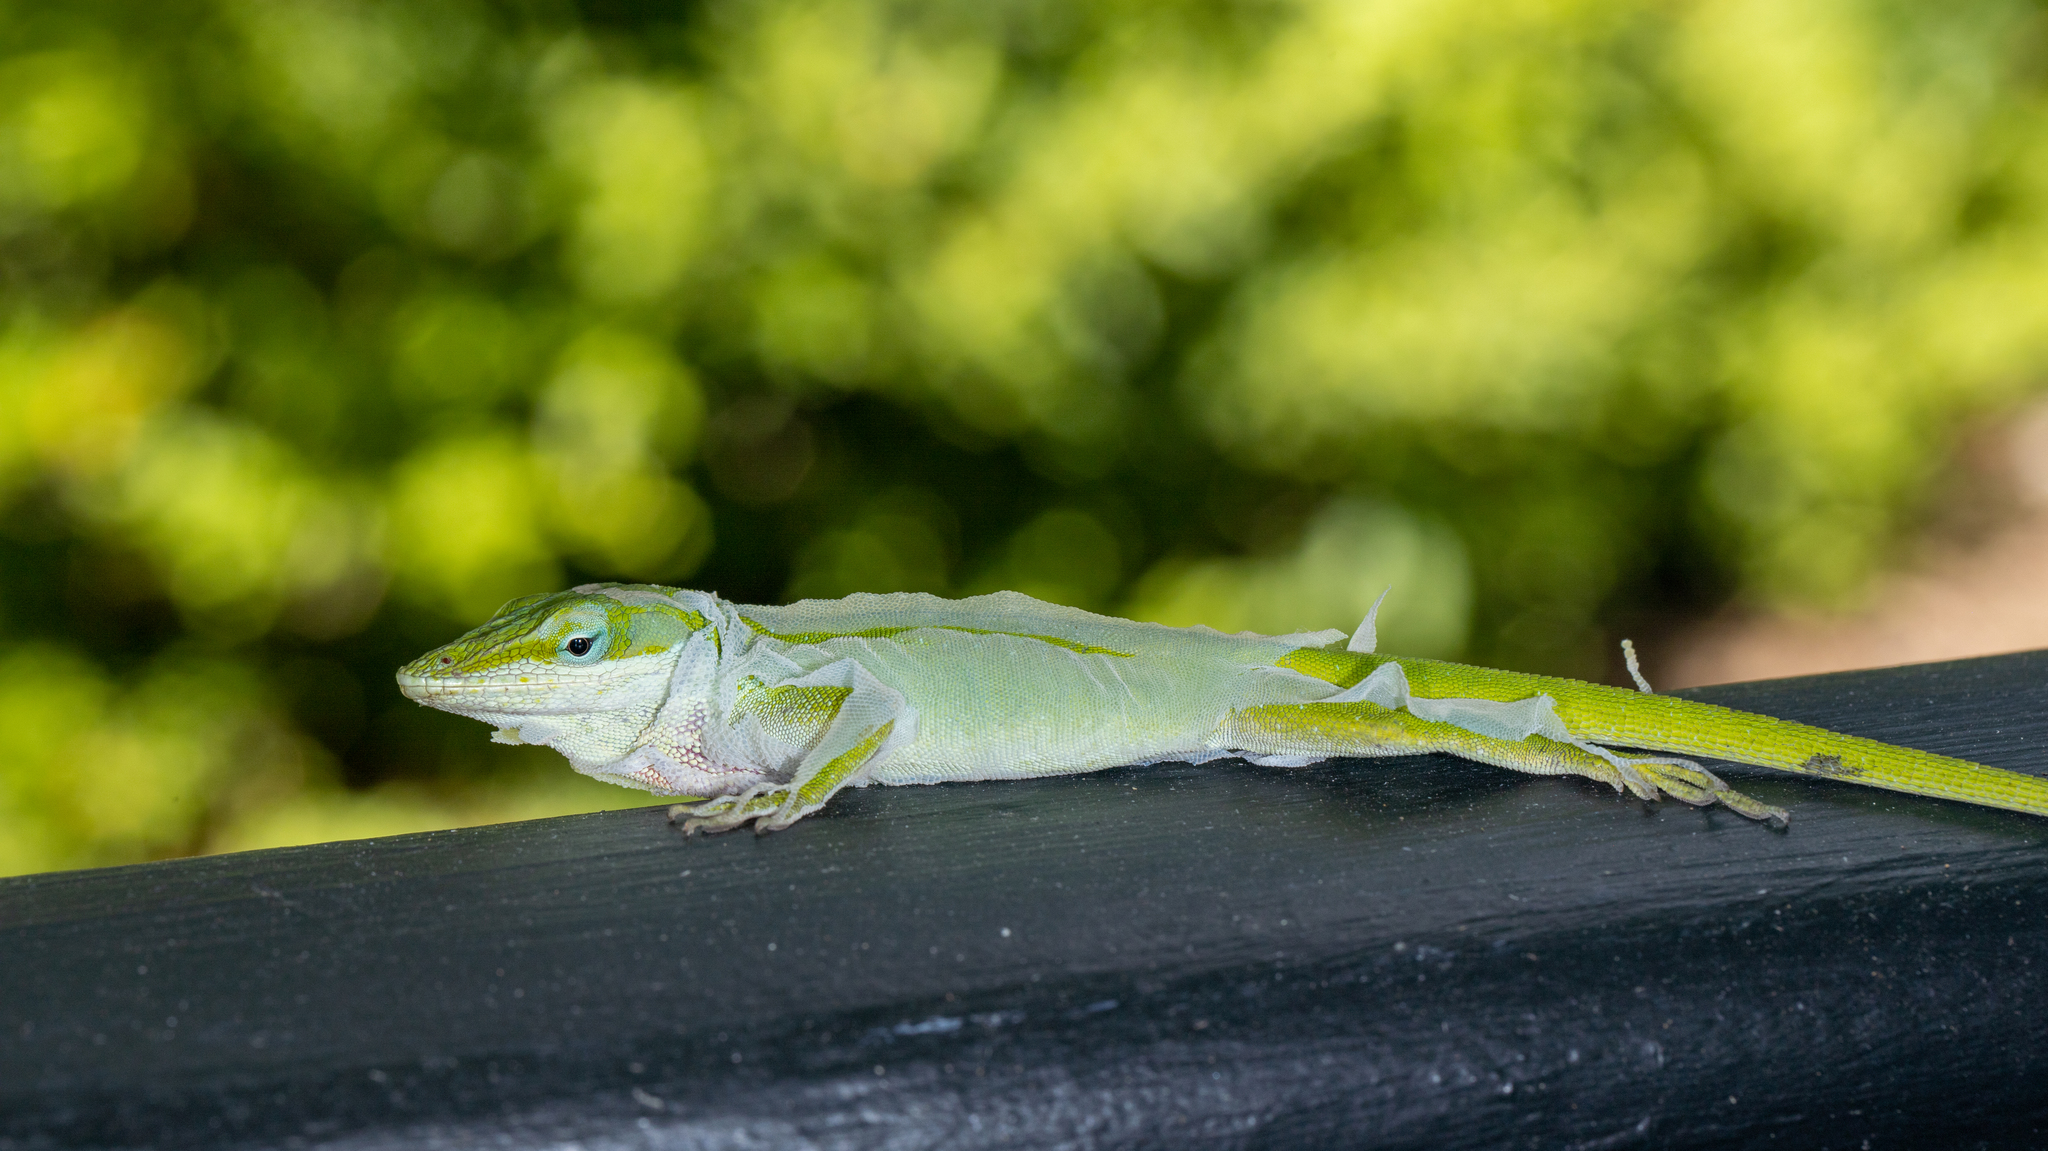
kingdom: Animalia
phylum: Chordata
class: Squamata
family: Dactyloidae
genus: Anolis
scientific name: Anolis carolinensis
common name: Green anole
